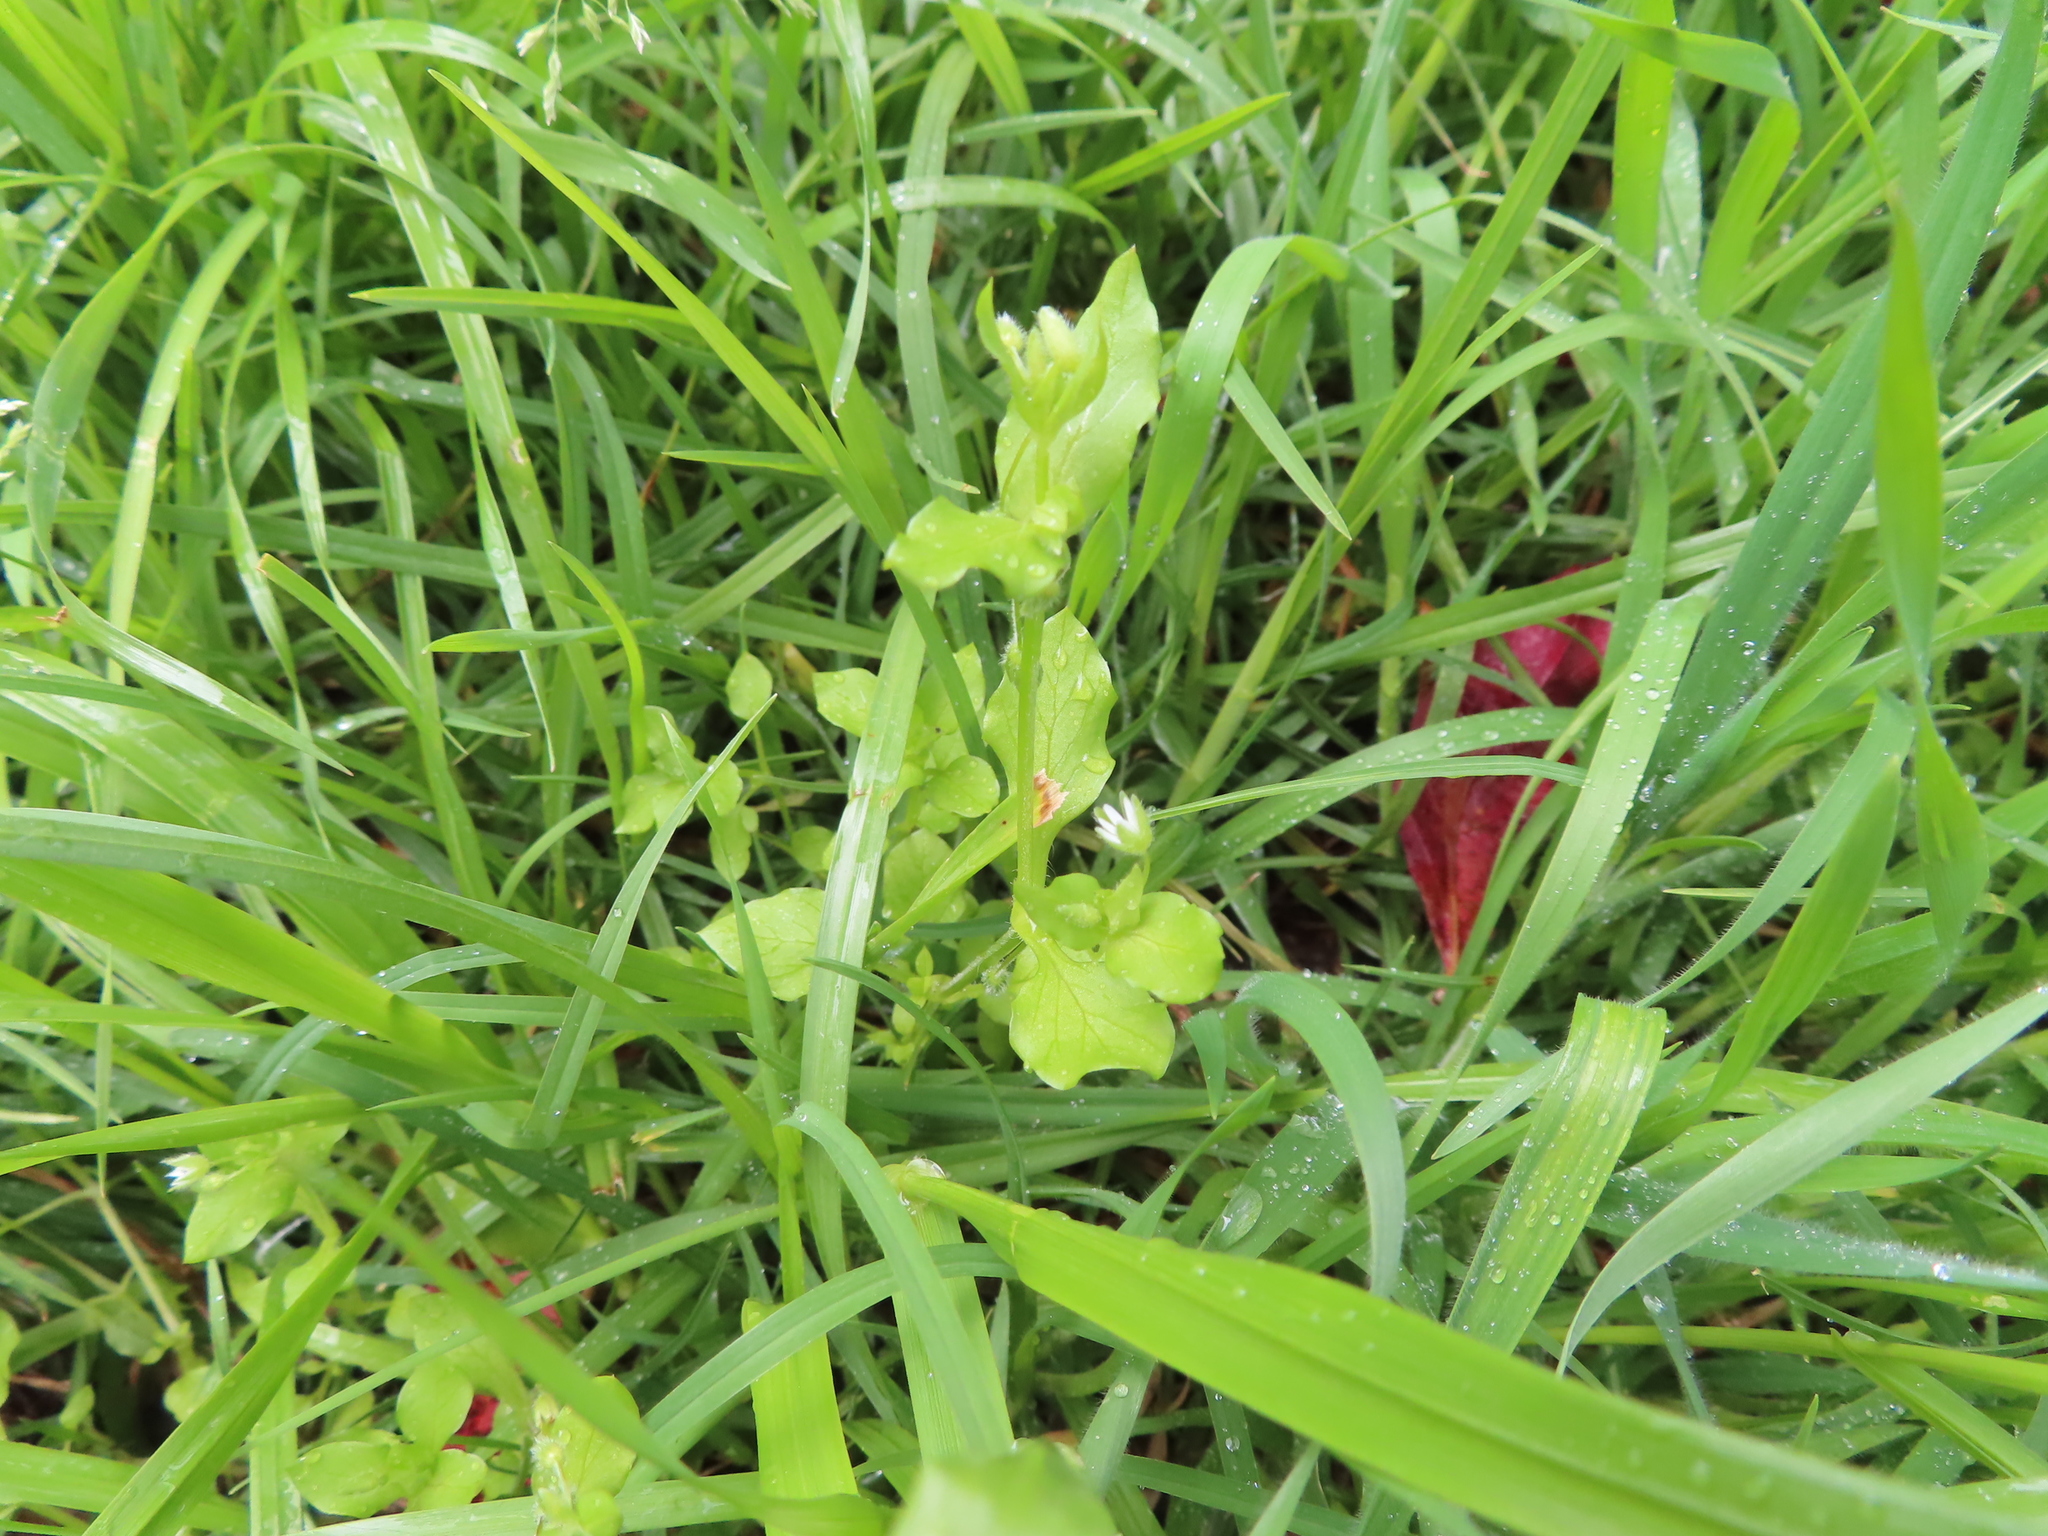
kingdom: Plantae
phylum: Tracheophyta
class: Magnoliopsida
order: Caryophyllales
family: Caryophyllaceae
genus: Stellaria
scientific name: Stellaria media
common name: Common chickweed
